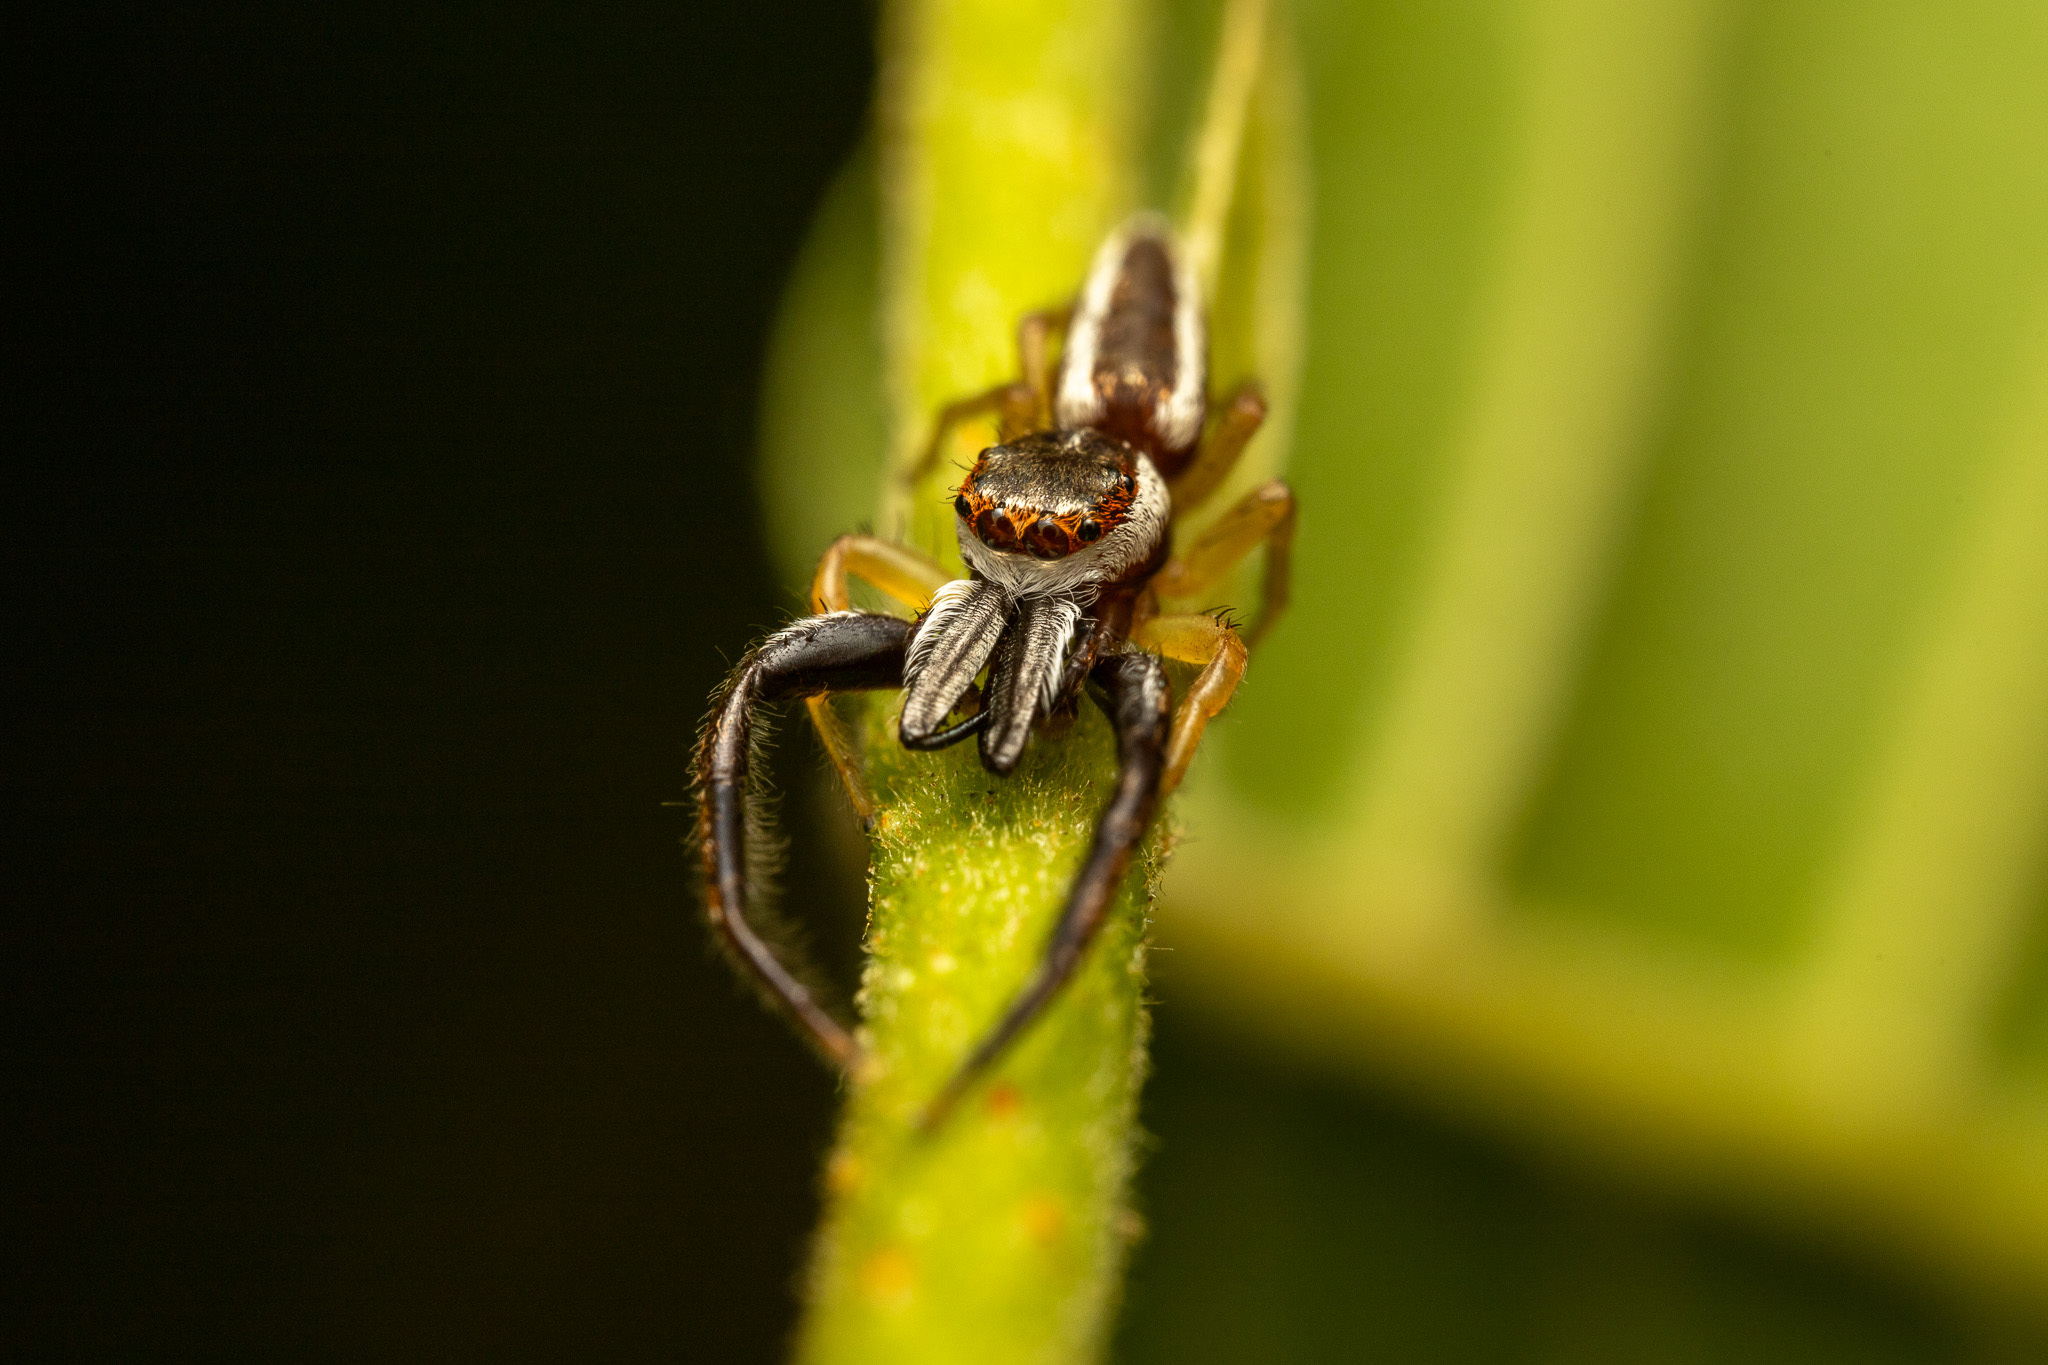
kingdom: Animalia
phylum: Arthropoda
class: Arachnida
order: Araneae
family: Salticidae
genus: Hentzia
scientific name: Hentzia palmarum
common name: Common hentz jumping spider
